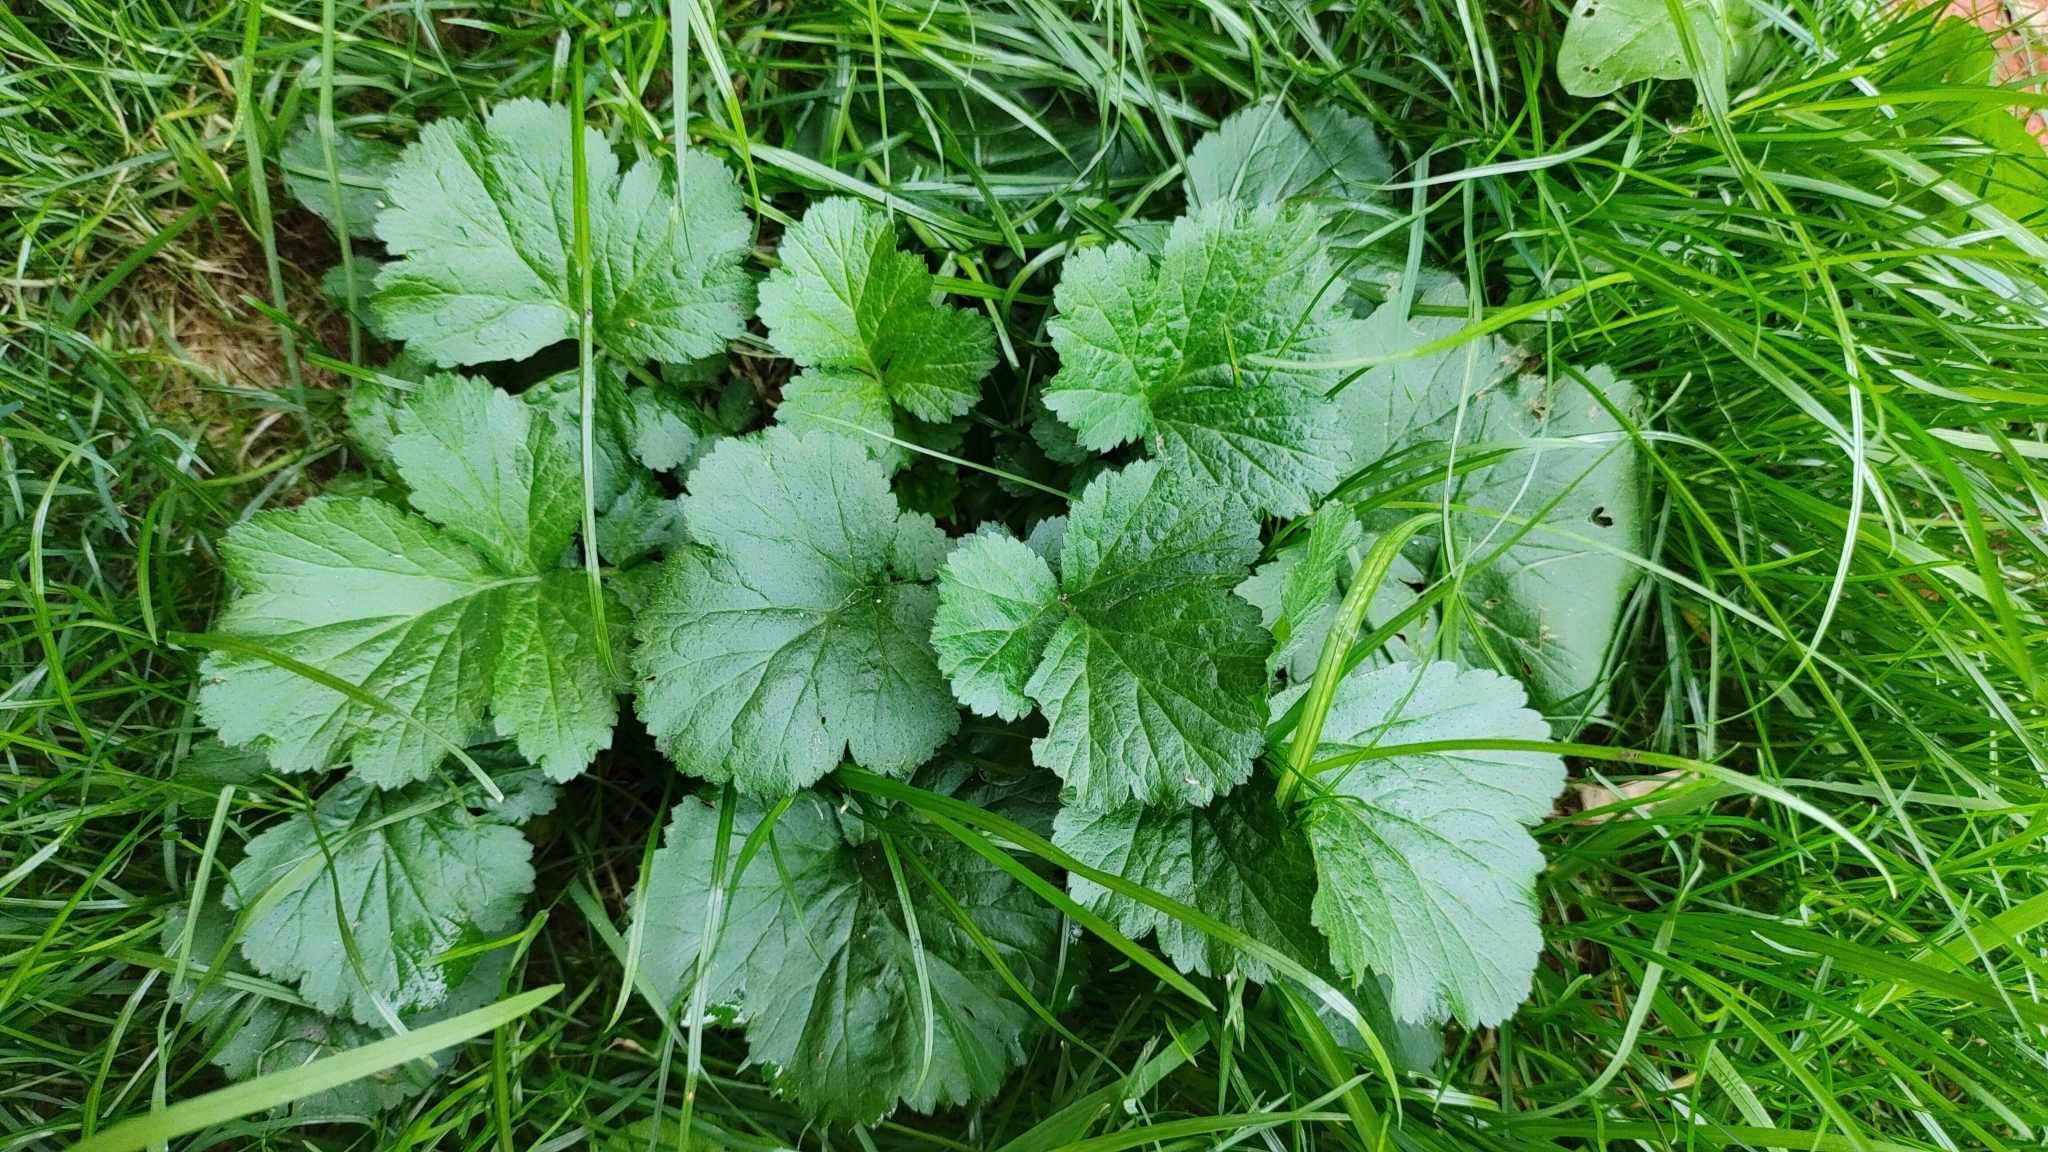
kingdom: Plantae
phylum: Tracheophyta
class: Magnoliopsida
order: Rosales
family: Rosaceae
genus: Geum
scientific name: Geum urbanum
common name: Wood avens
